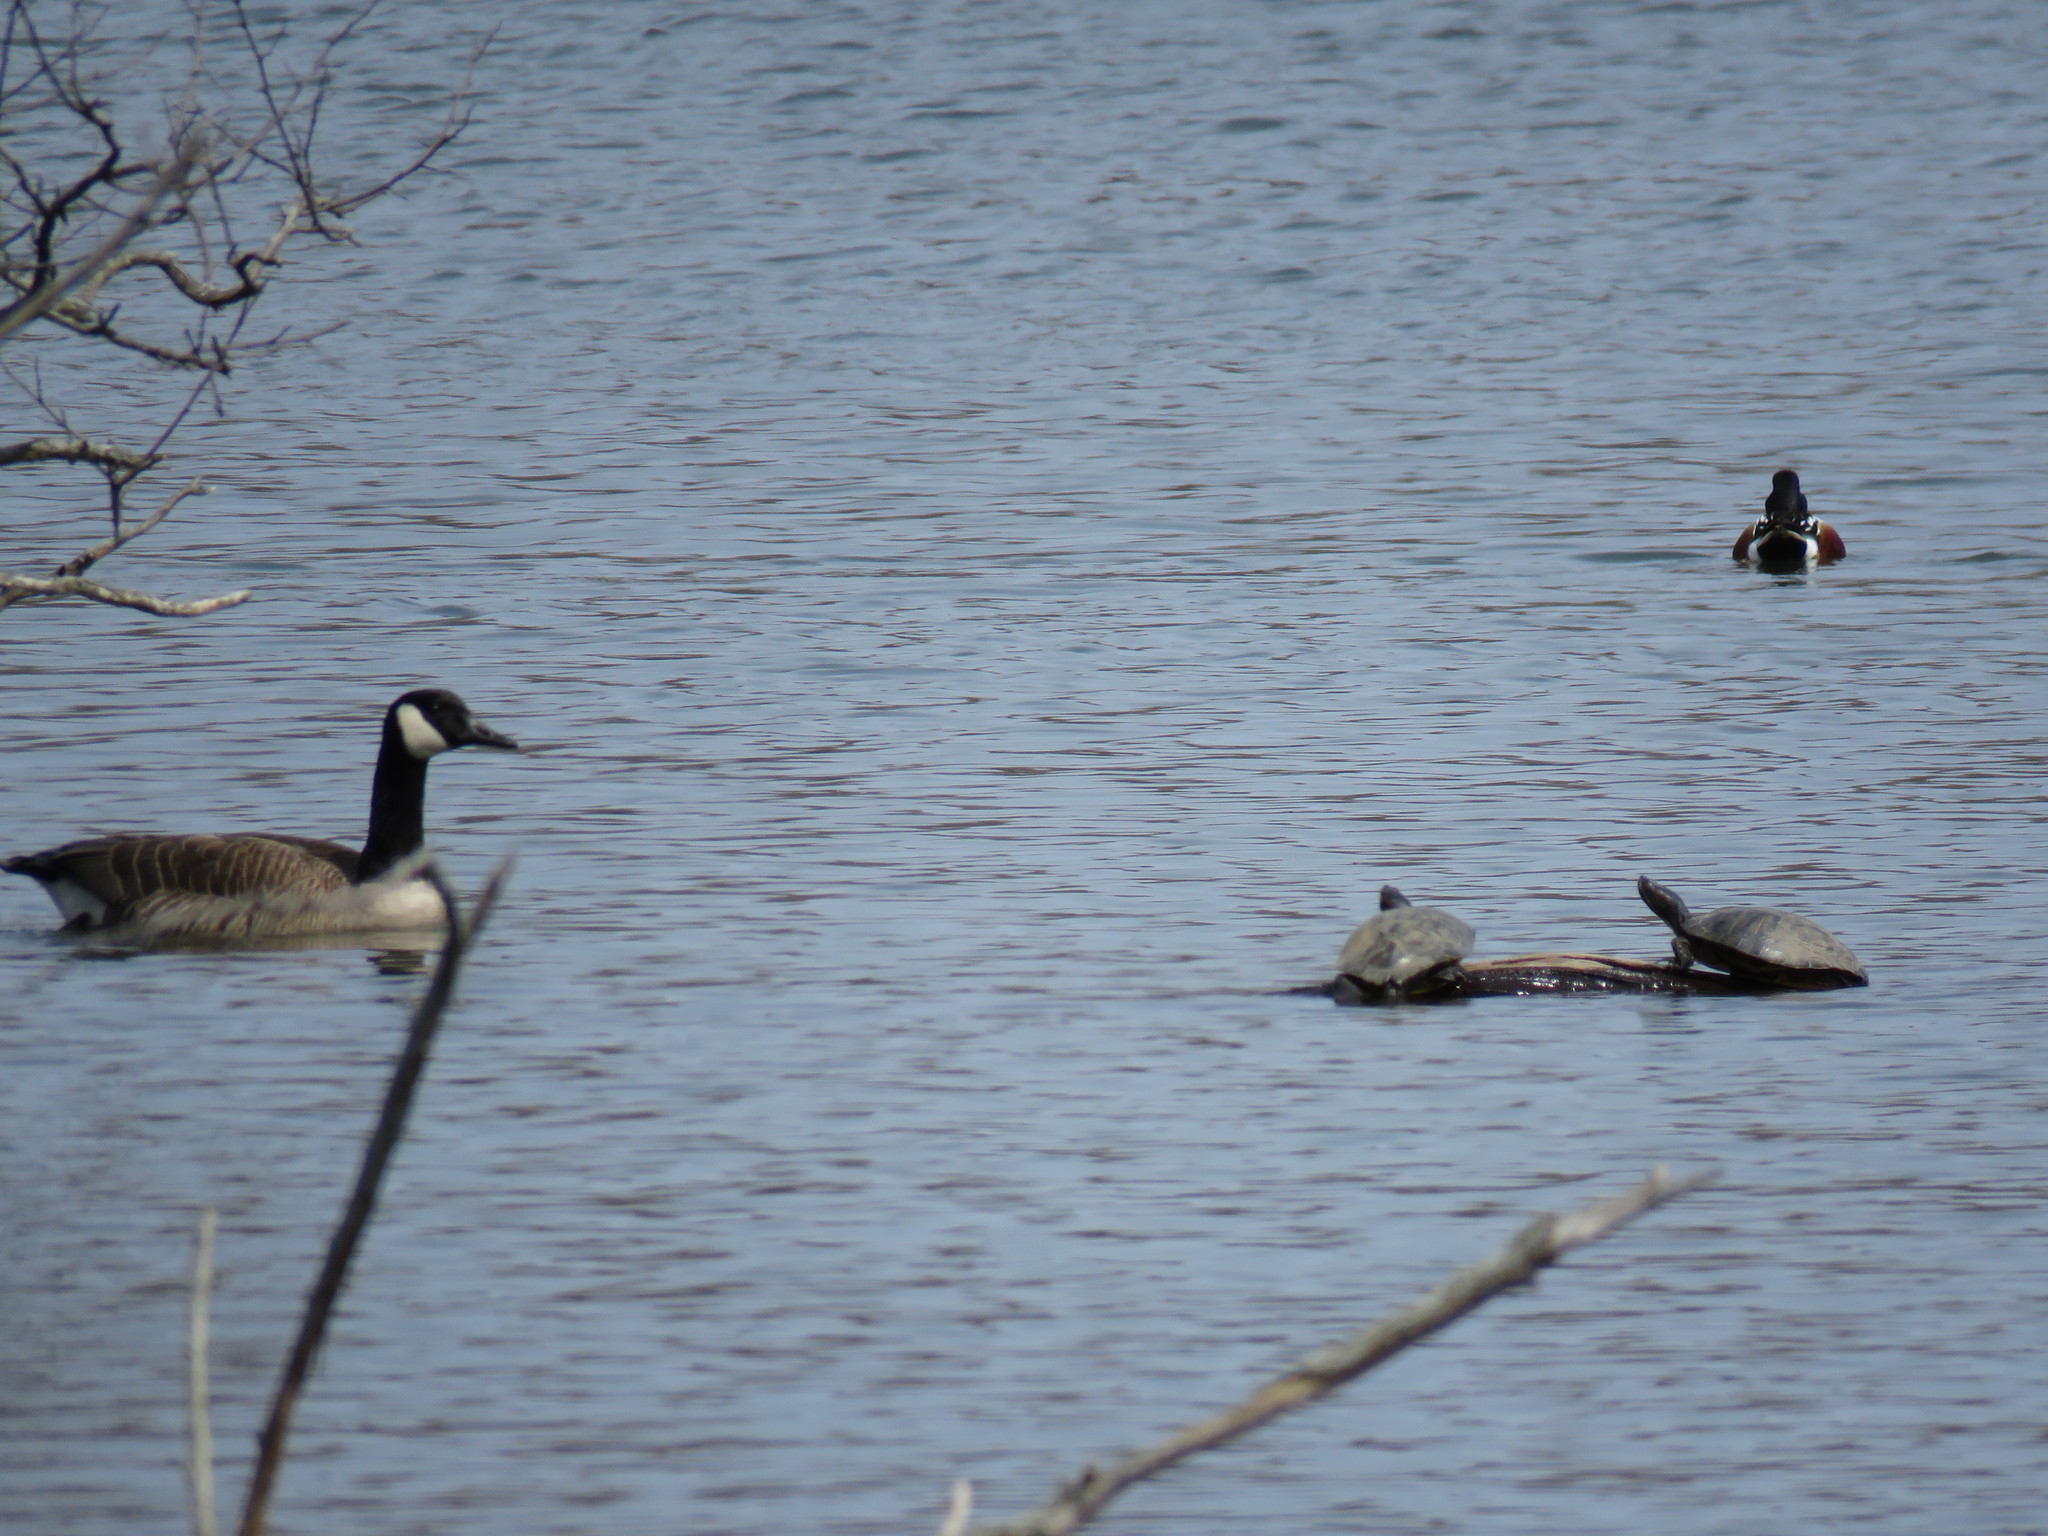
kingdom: Animalia
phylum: Chordata
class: Aves
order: Anseriformes
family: Anatidae
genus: Branta
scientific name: Branta canadensis
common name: Canada goose
